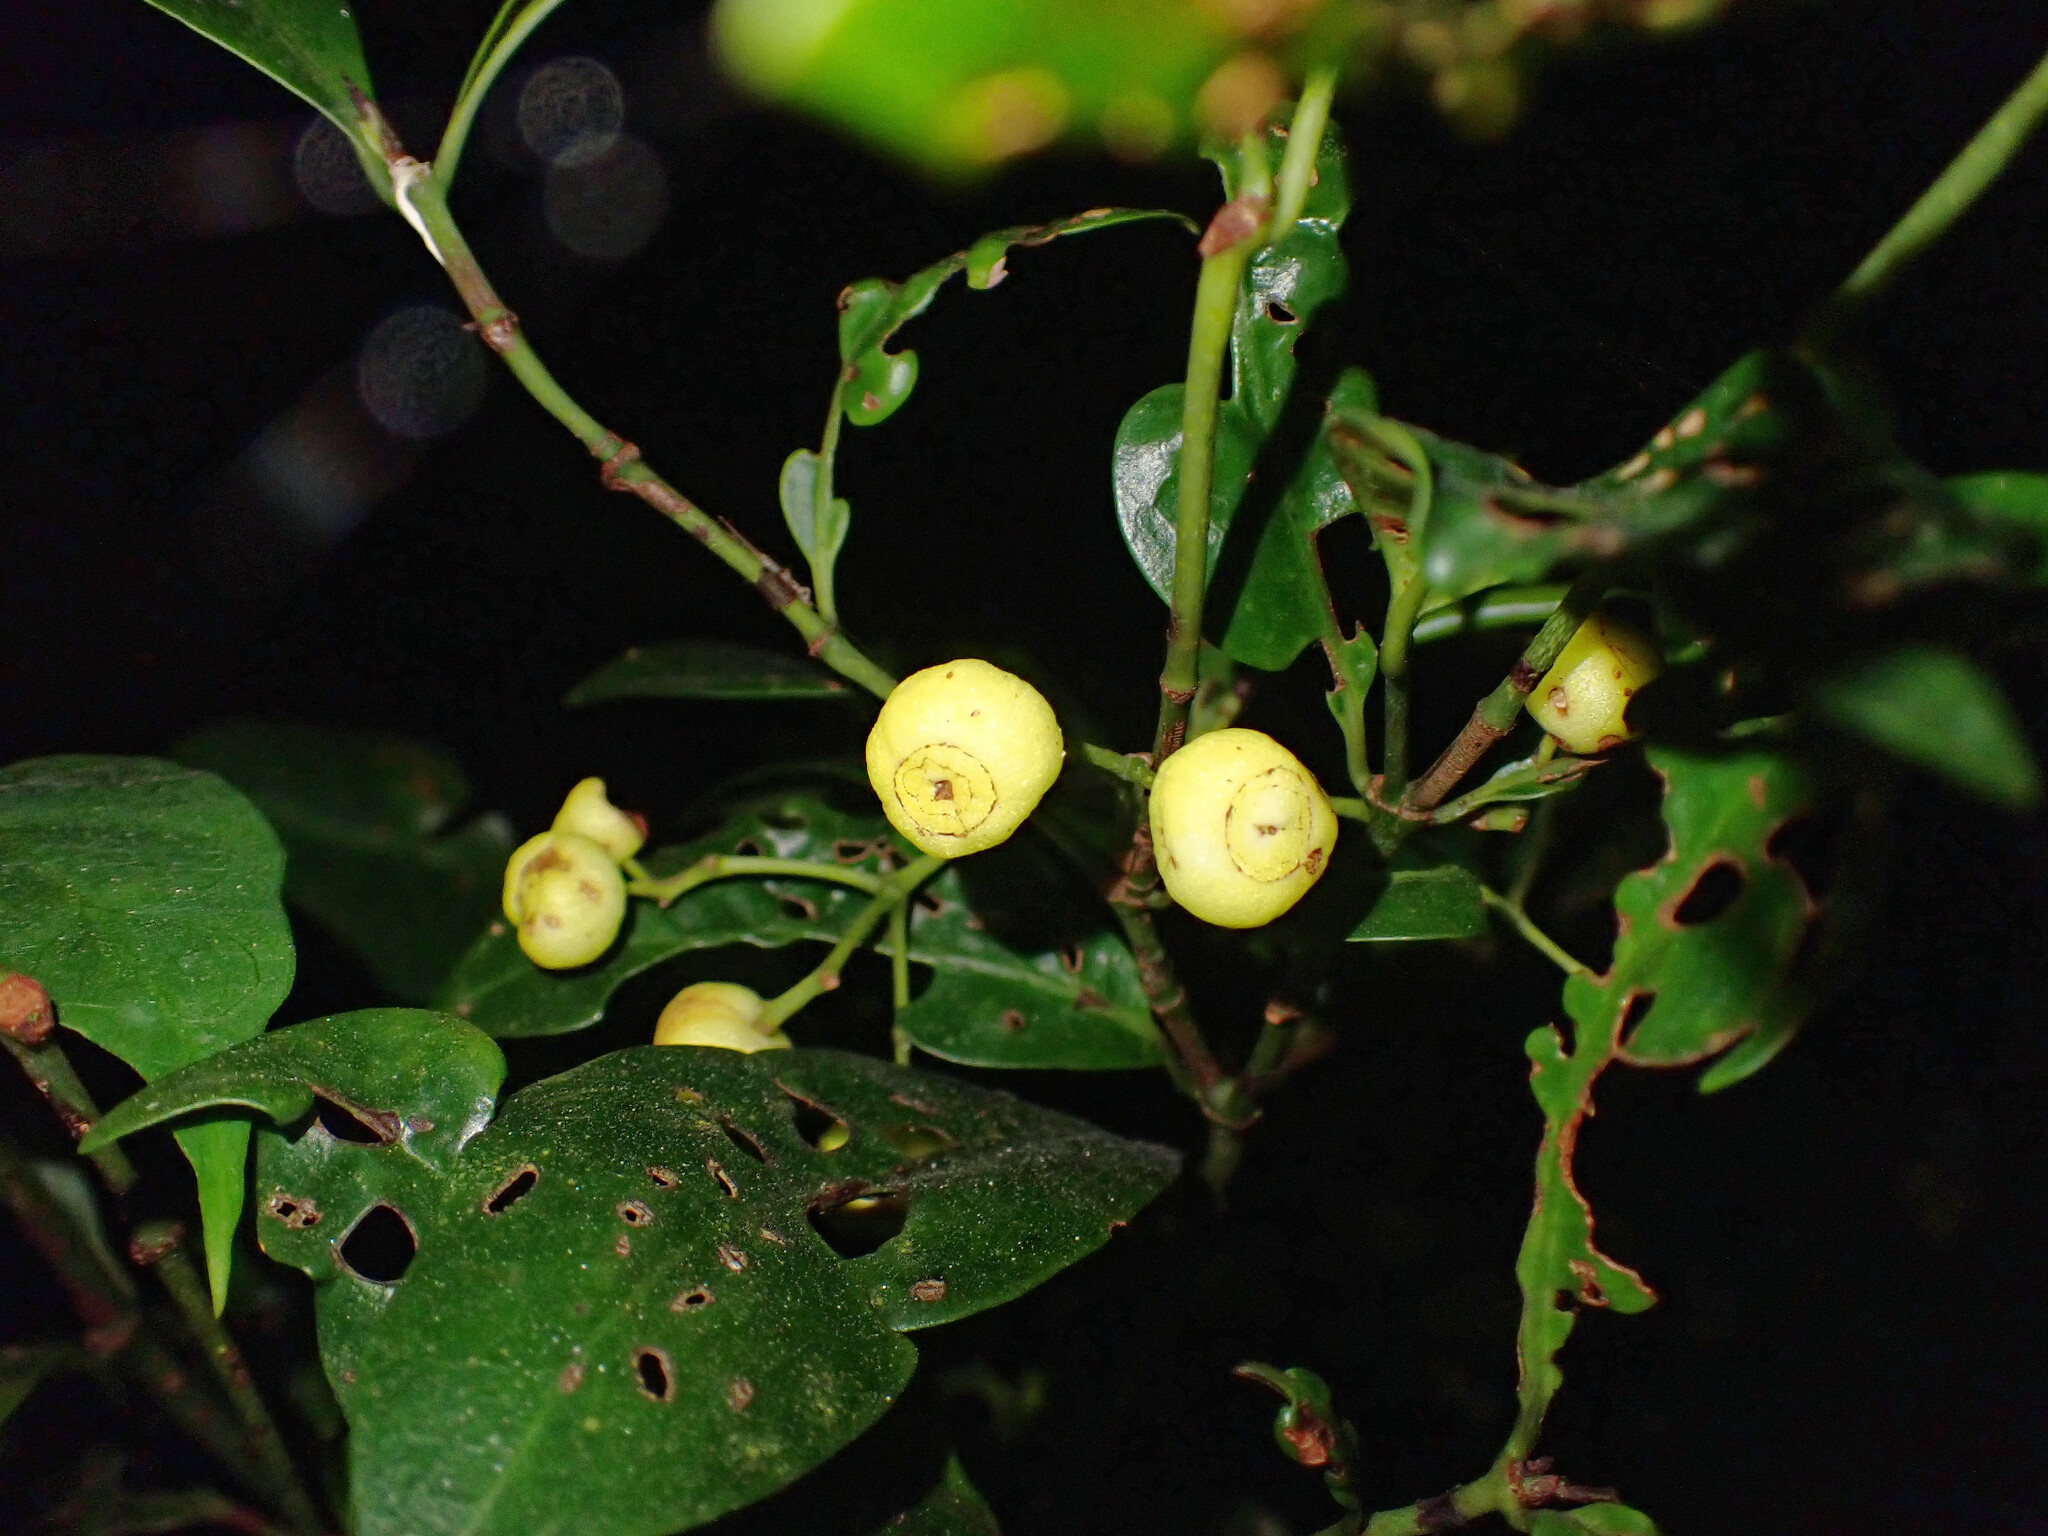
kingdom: Plantae
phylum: Tracheophyta
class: Magnoliopsida
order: Gentianales
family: Rubiaceae
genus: Psychotria
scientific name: Psychotria dallachiana
